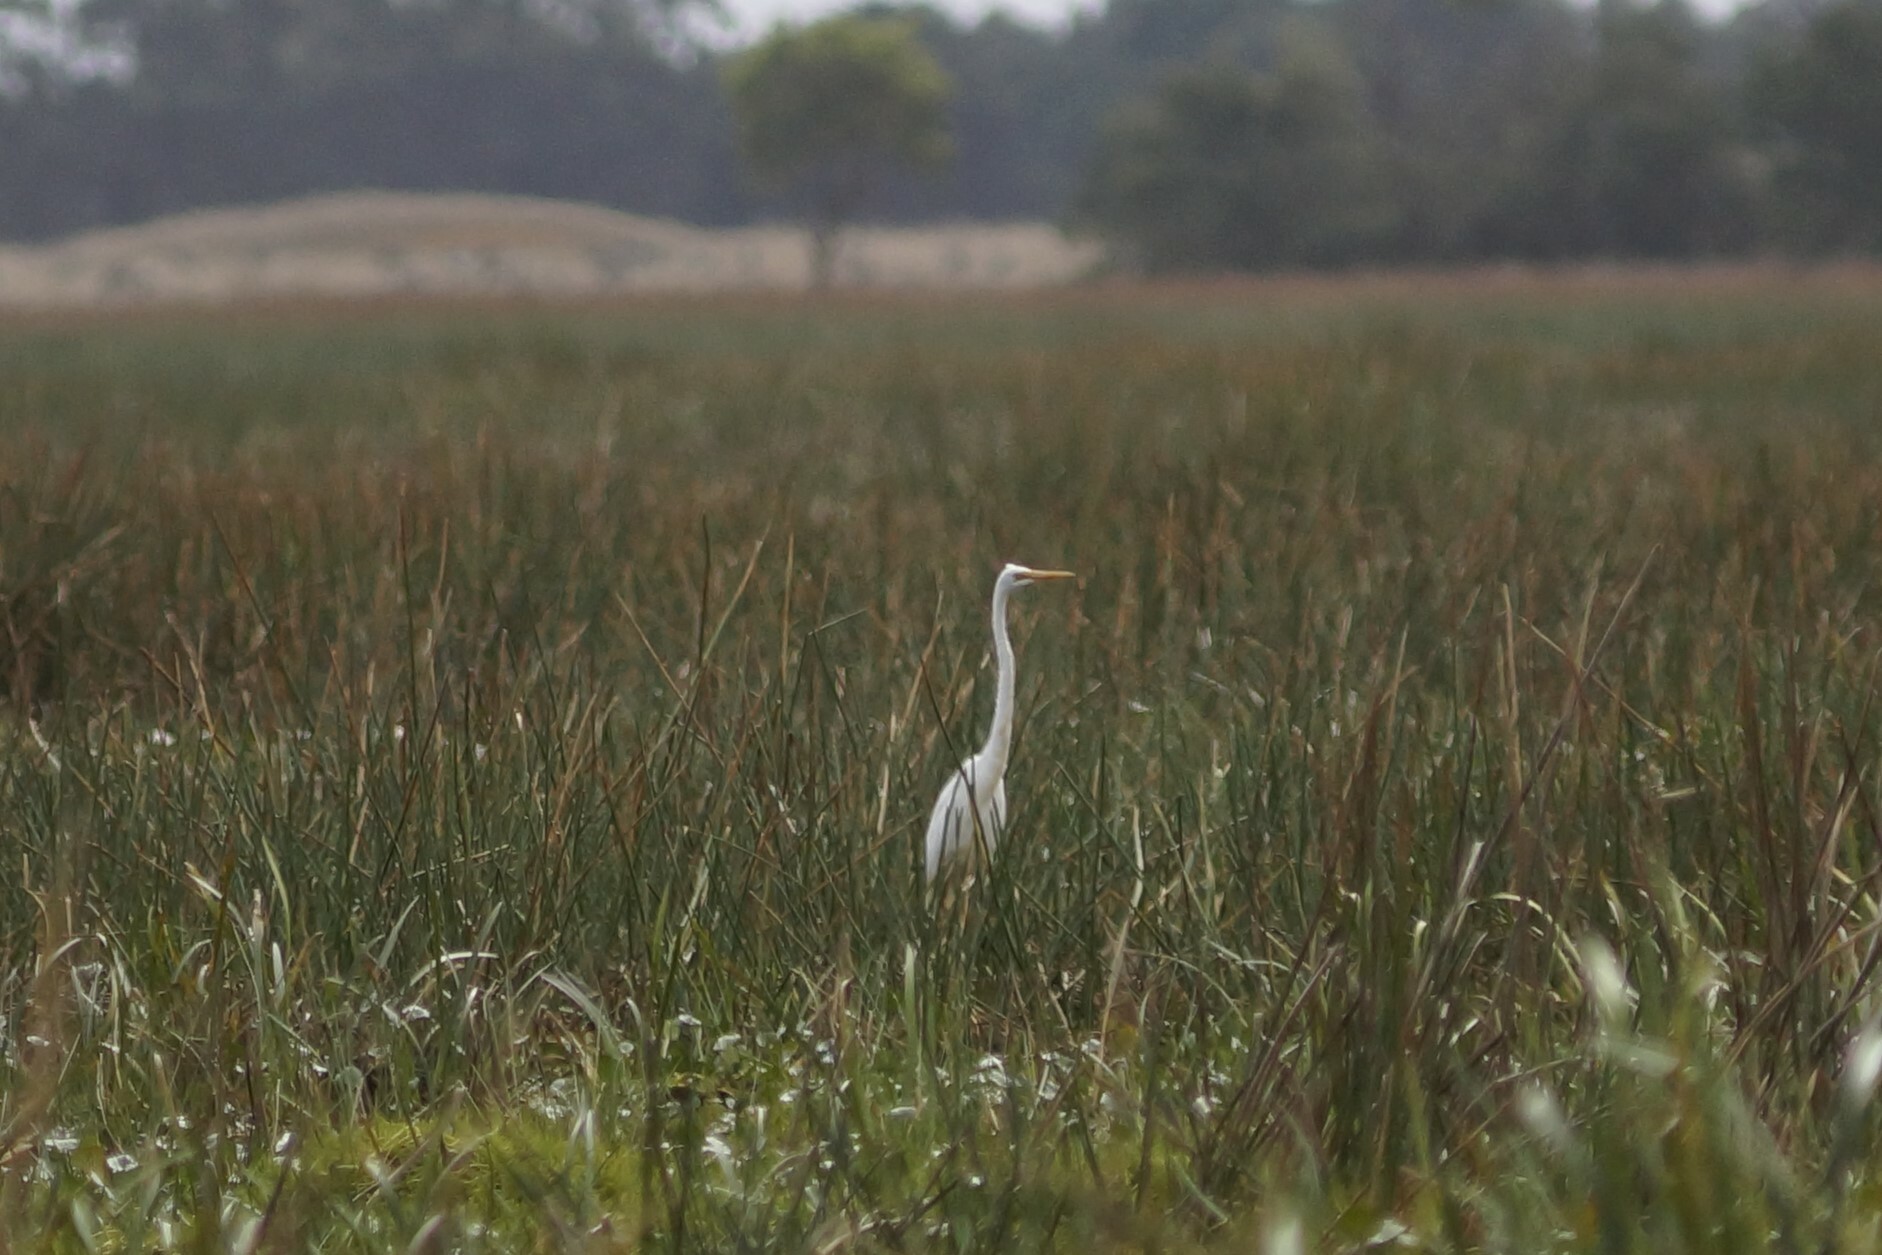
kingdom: Animalia
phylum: Chordata
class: Aves
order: Pelecaniformes
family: Ardeidae
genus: Ardea
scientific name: Ardea alba
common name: Great egret
